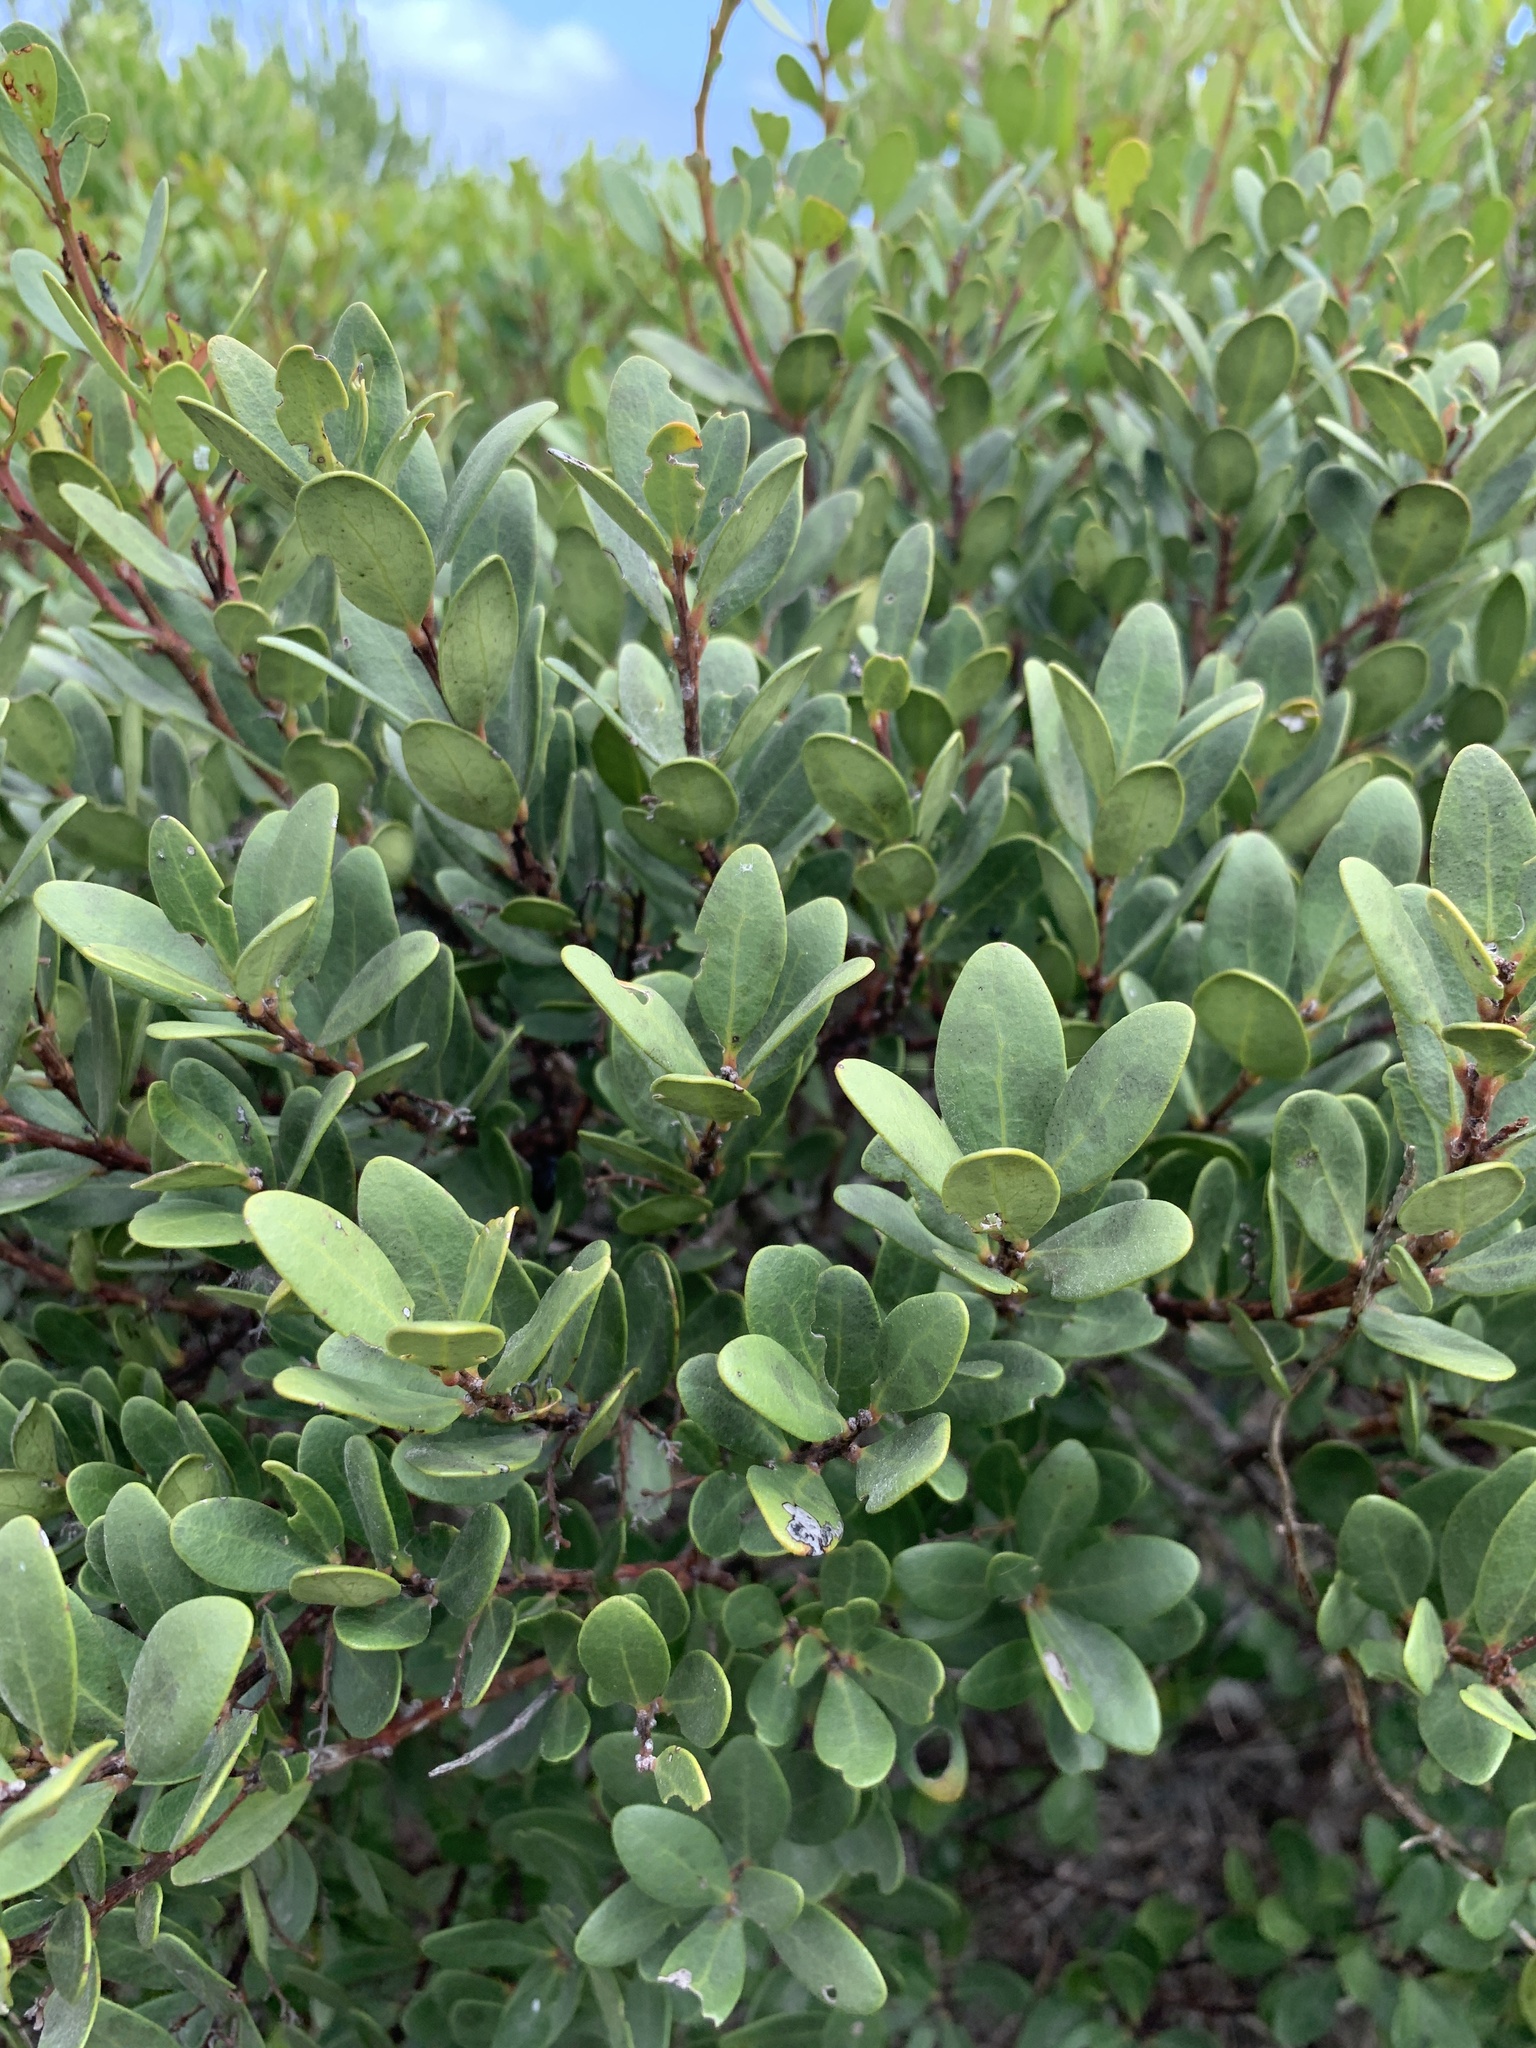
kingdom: Plantae
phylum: Tracheophyta
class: Magnoliopsida
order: Ericales
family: Ebenaceae
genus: Euclea
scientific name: Euclea racemosa
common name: Dune guarri
